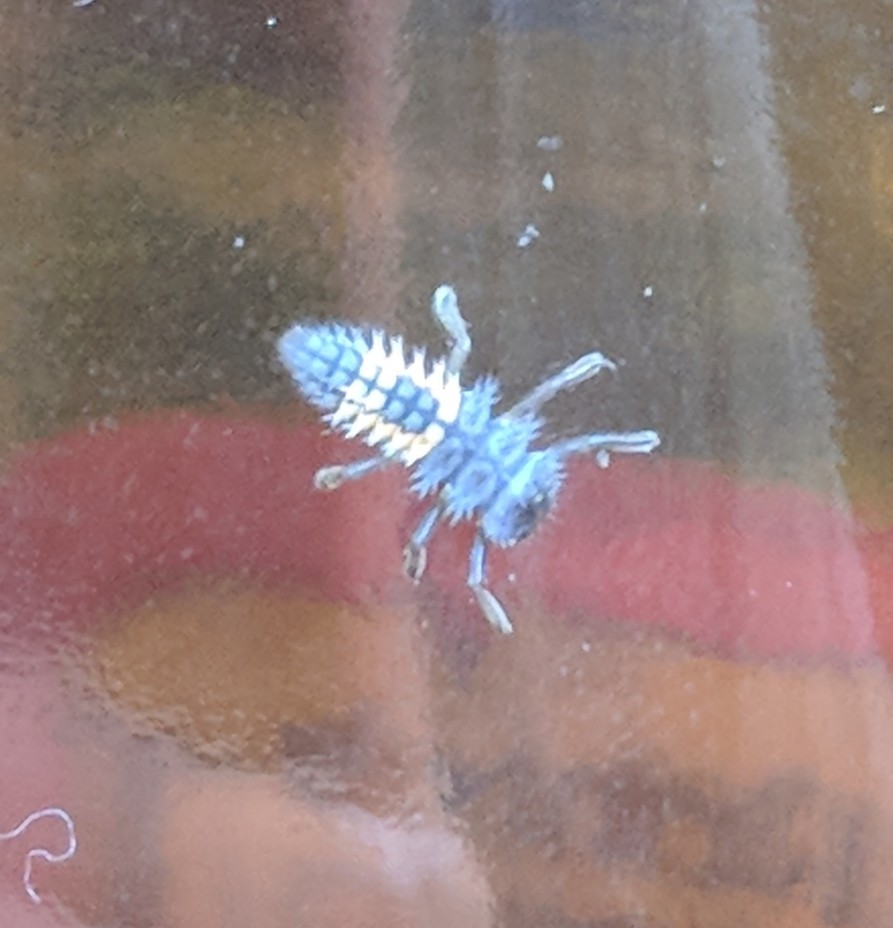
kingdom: Animalia
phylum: Arthropoda
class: Insecta
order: Coleoptera
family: Coccinellidae
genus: Harmonia
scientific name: Harmonia axyridis
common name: Harlequin ladybird
